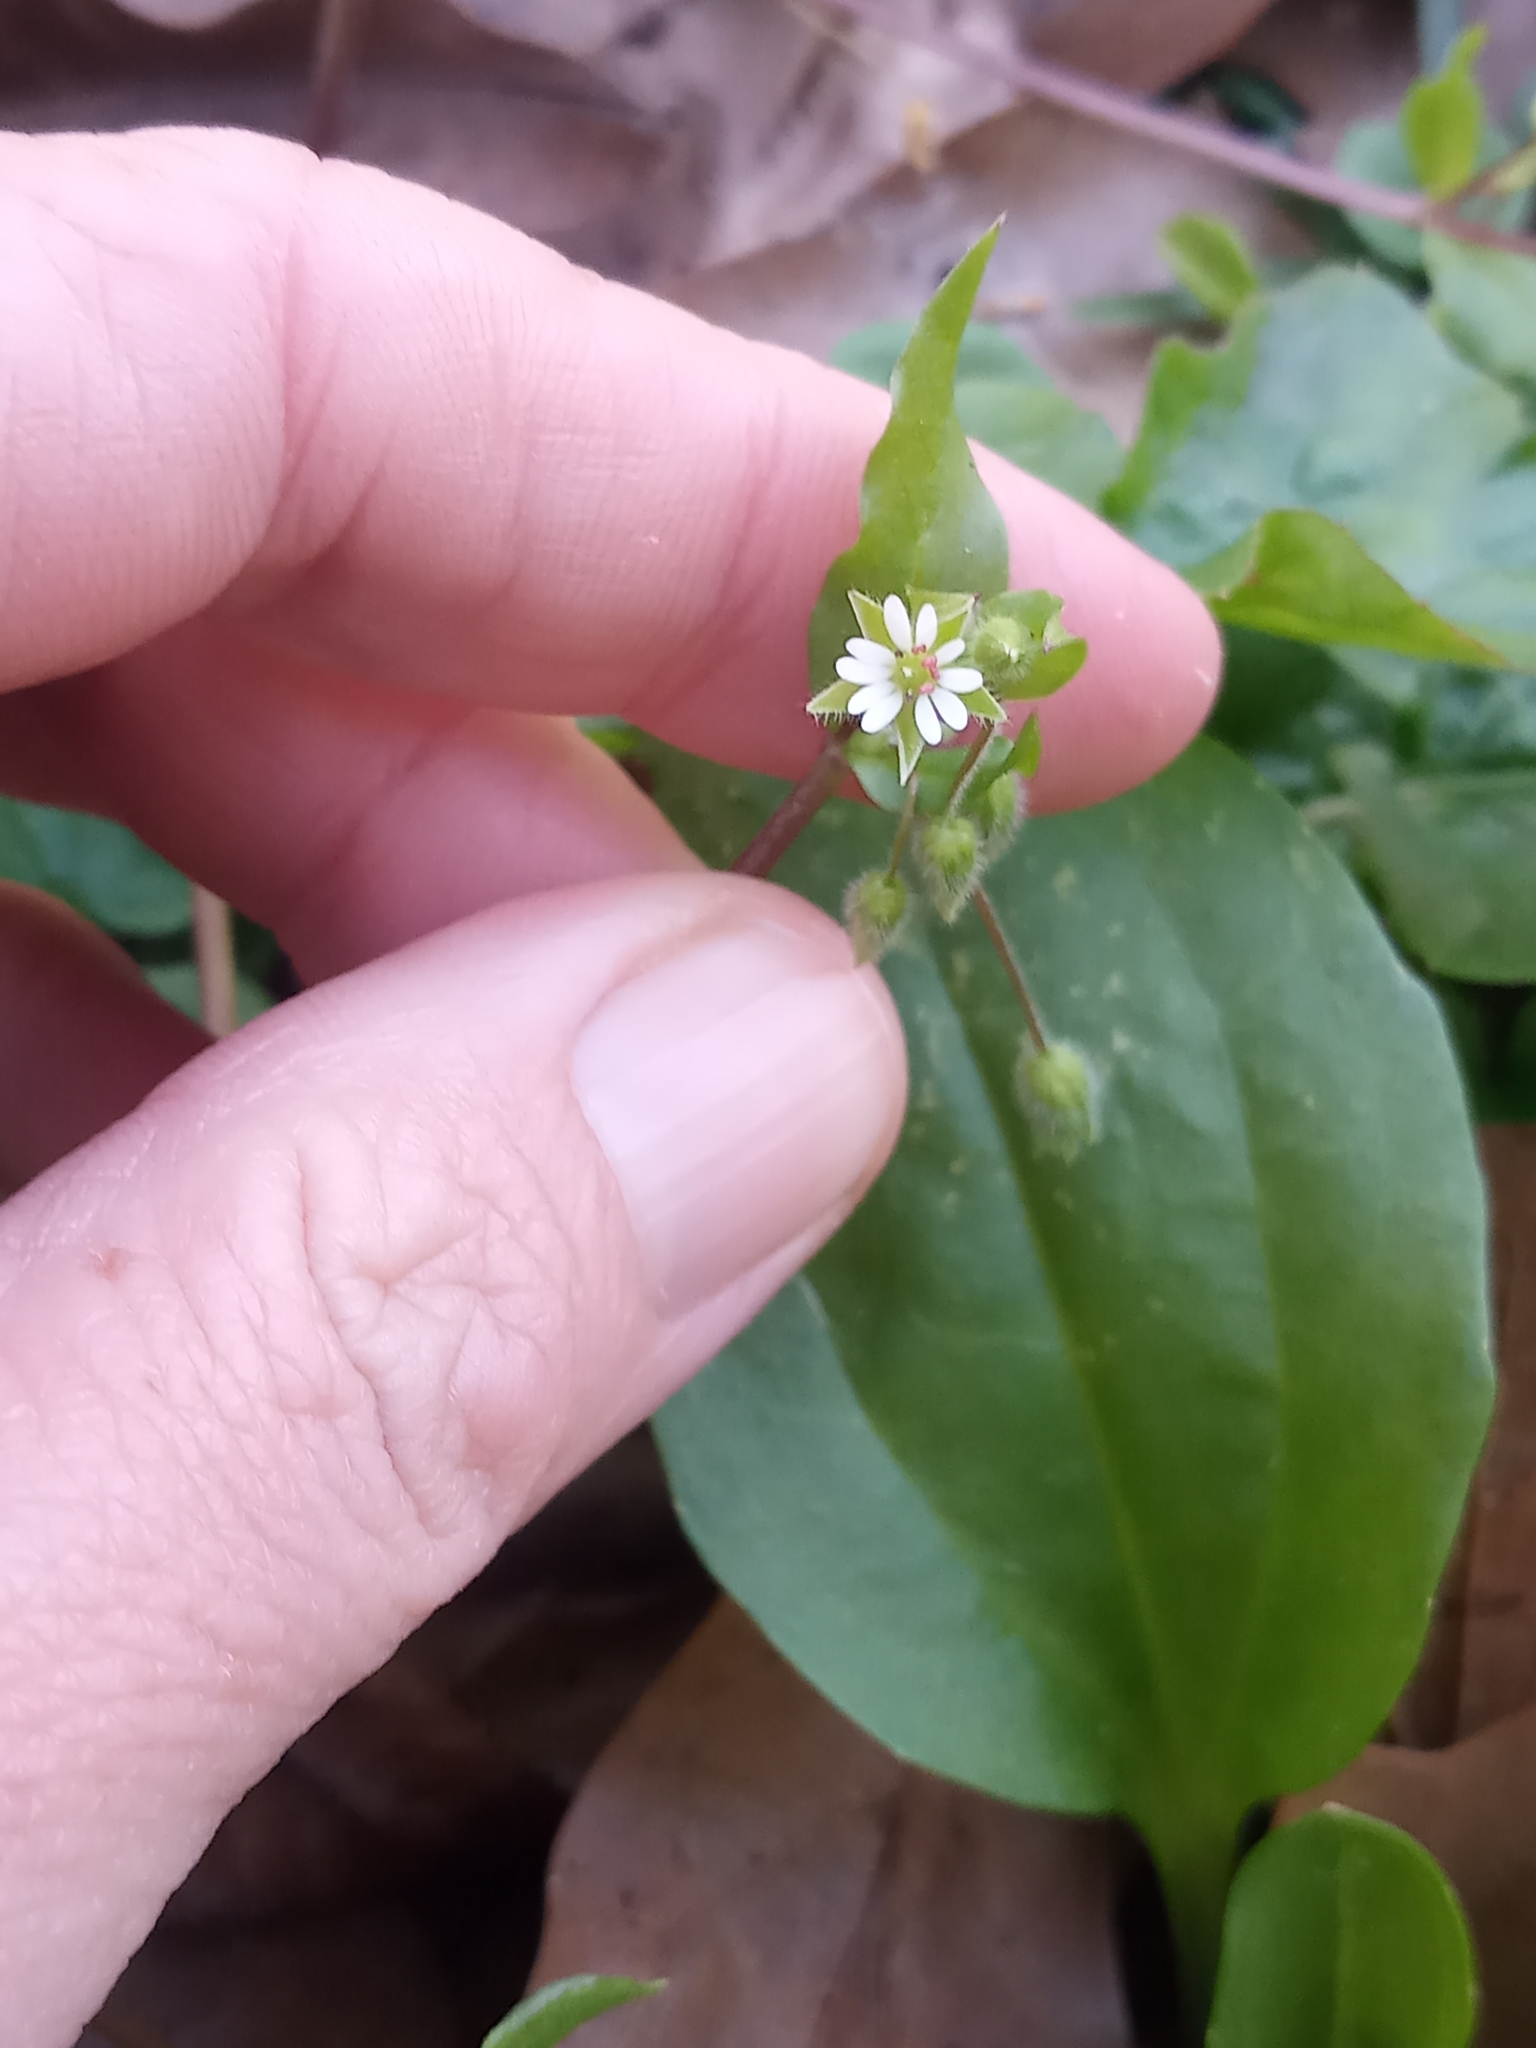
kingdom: Plantae
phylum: Tracheophyta
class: Magnoliopsida
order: Caryophyllales
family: Caryophyllaceae
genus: Stellaria
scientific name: Stellaria media
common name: Common chickweed
